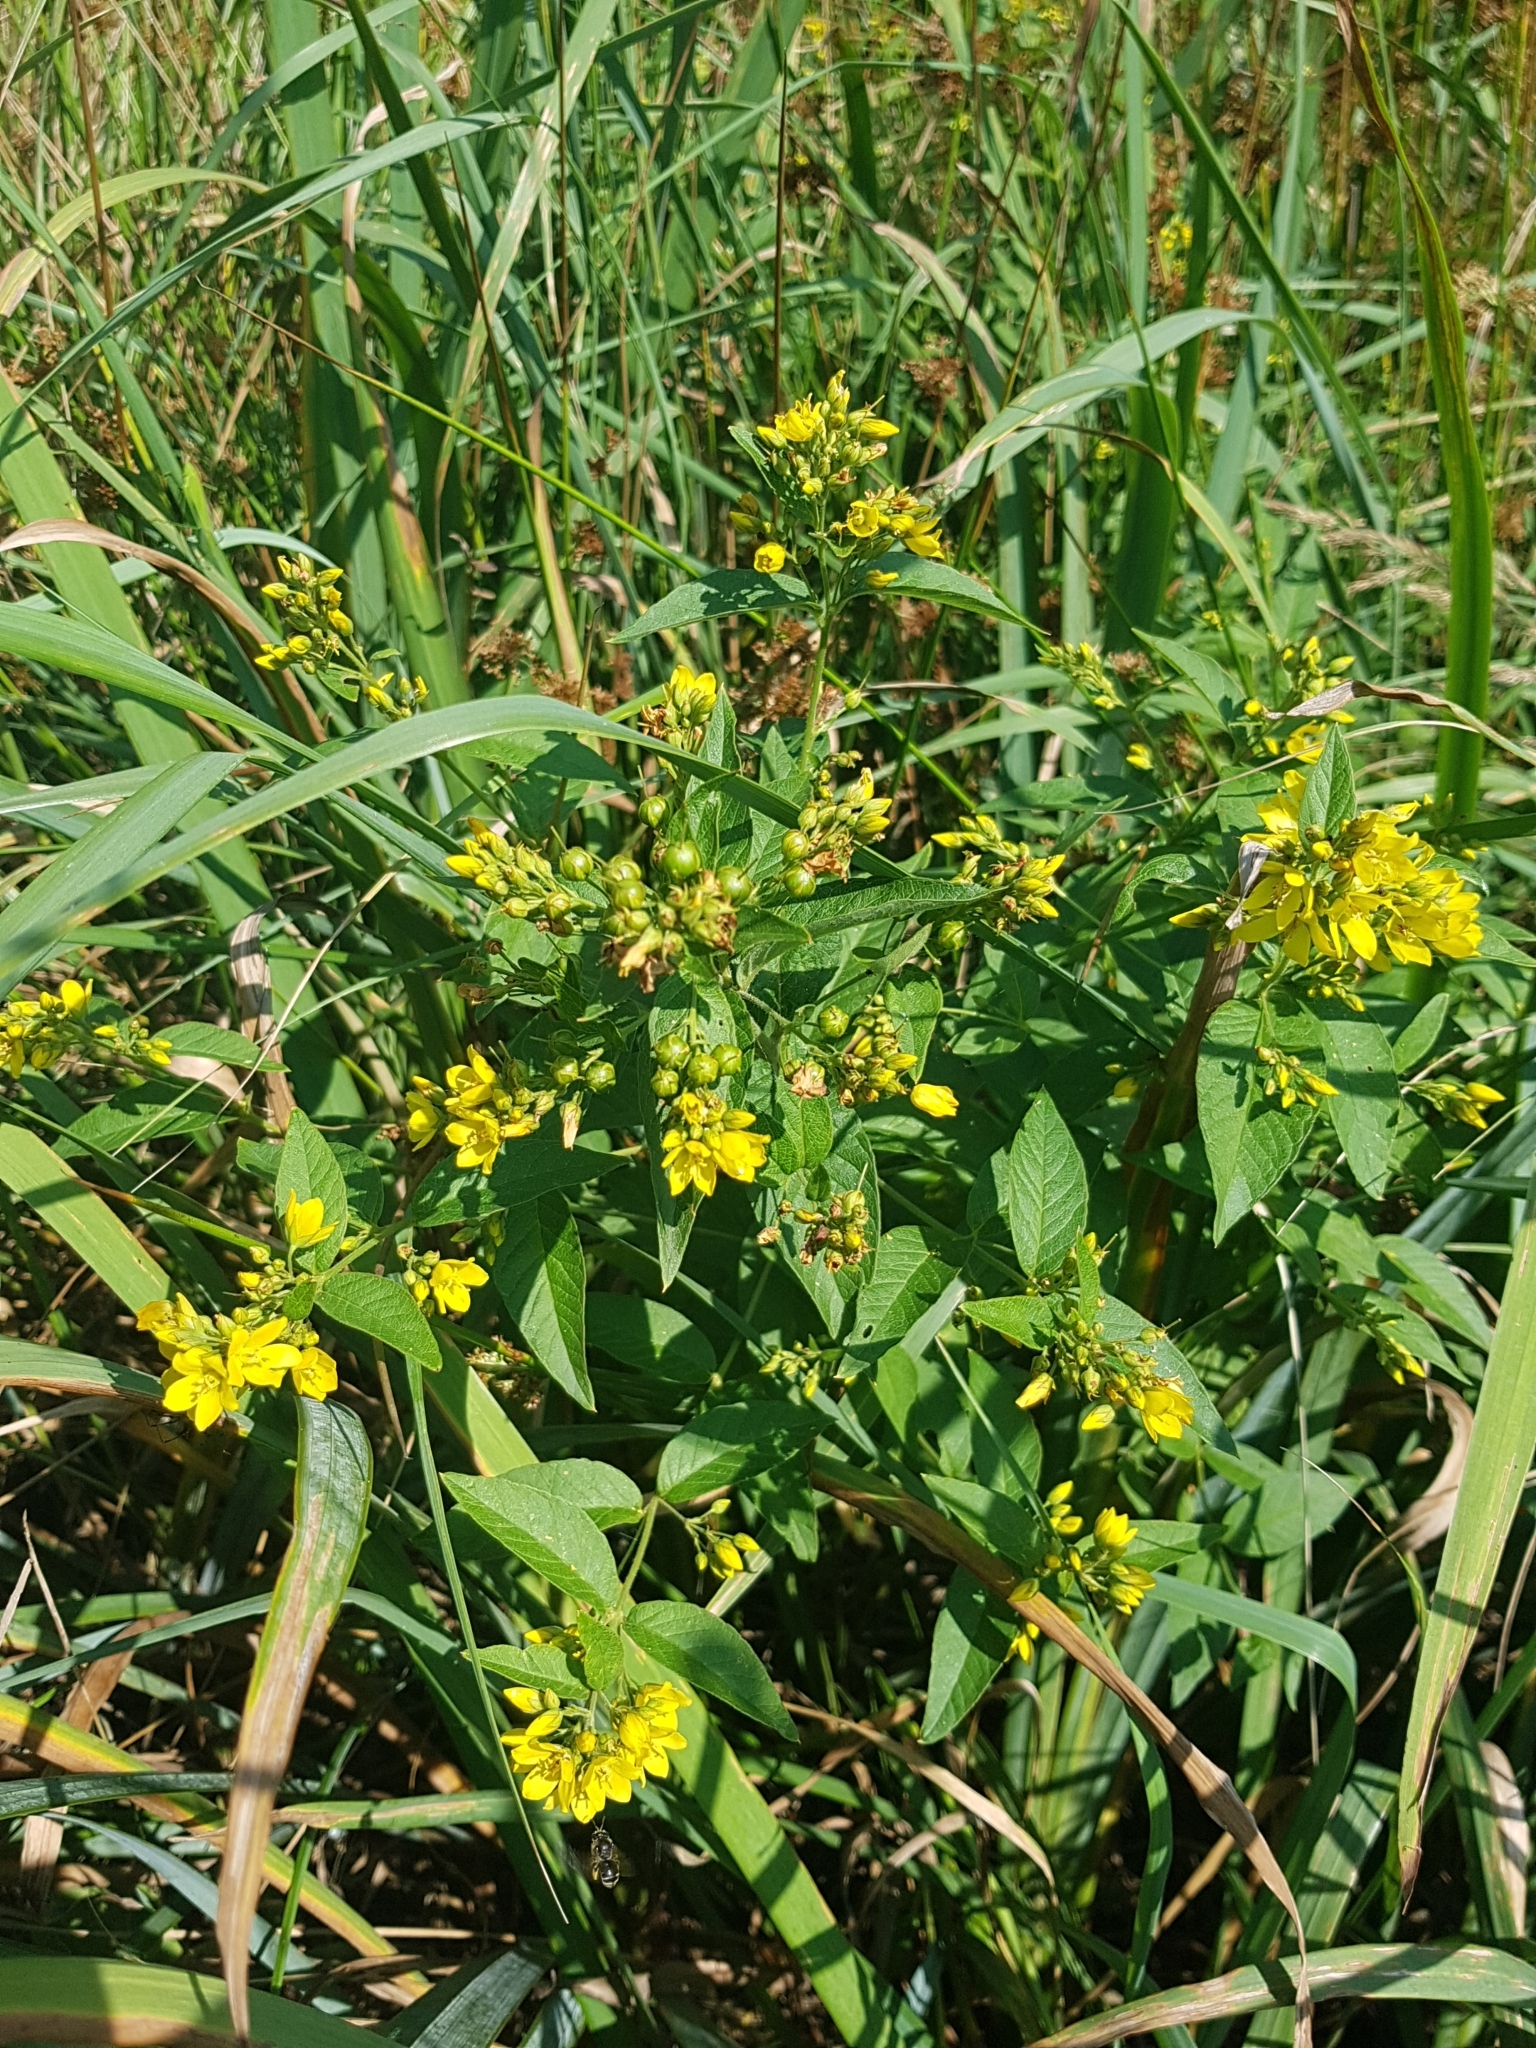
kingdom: Plantae
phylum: Tracheophyta
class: Magnoliopsida
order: Ericales
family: Primulaceae
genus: Lysimachia
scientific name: Lysimachia vulgaris
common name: Yellow loosestrife
